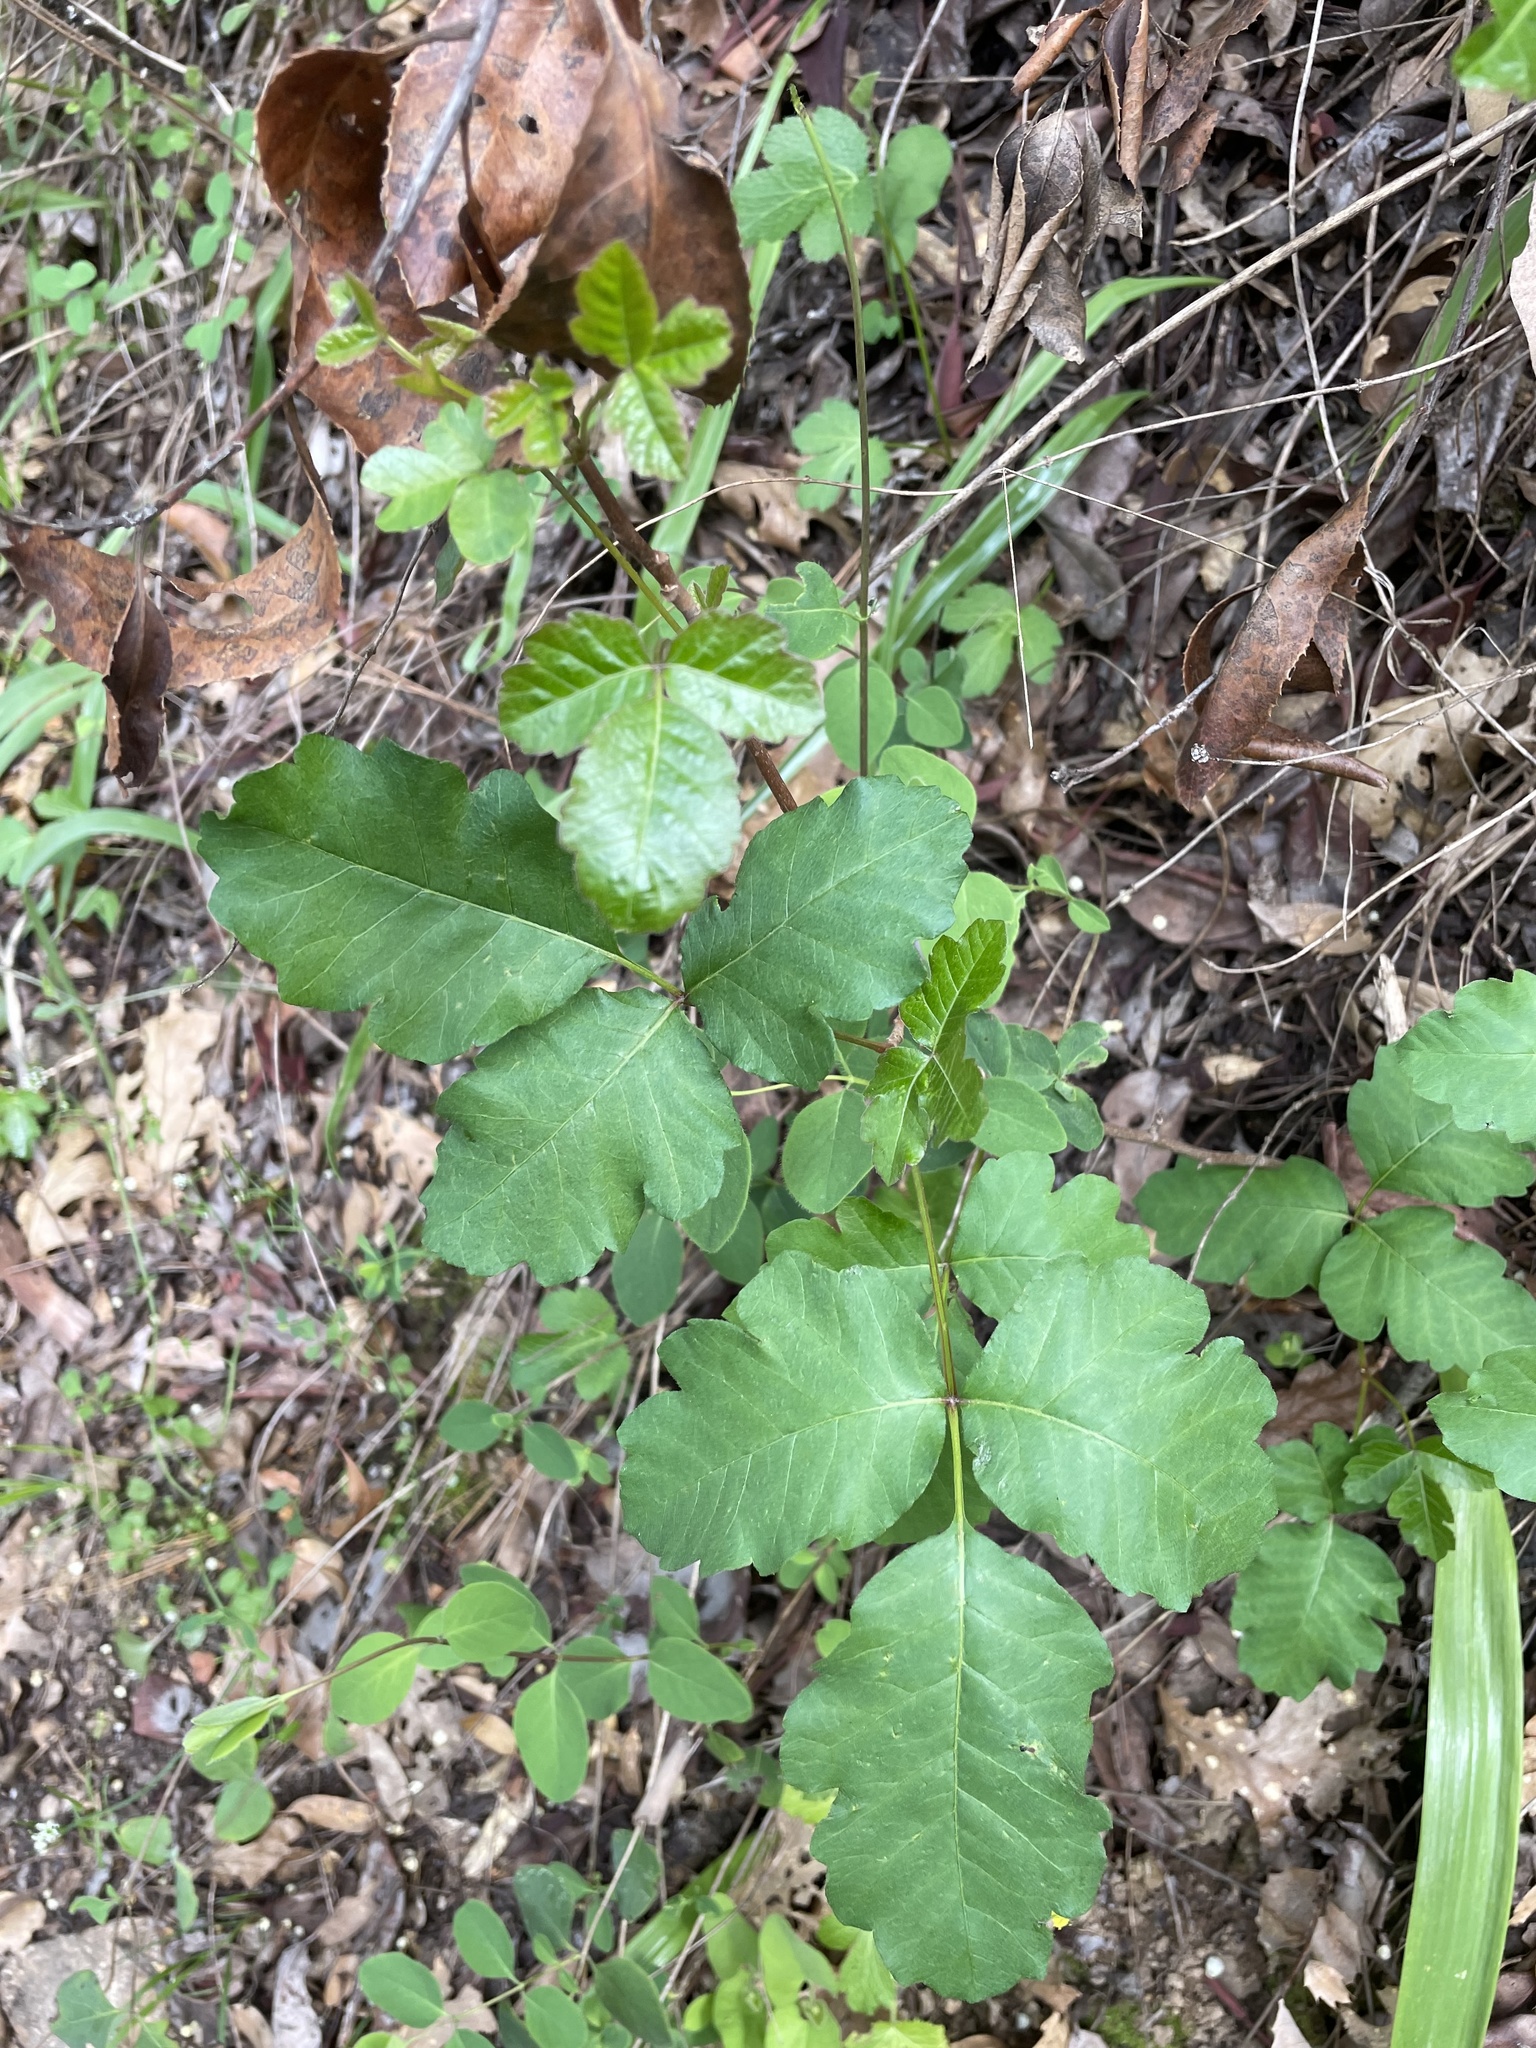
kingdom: Plantae
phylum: Tracheophyta
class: Magnoliopsida
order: Sapindales
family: Anacardiaceae
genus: Toxicodendron
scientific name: Toxicodendron diversilobum
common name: Pacific poison-oak
